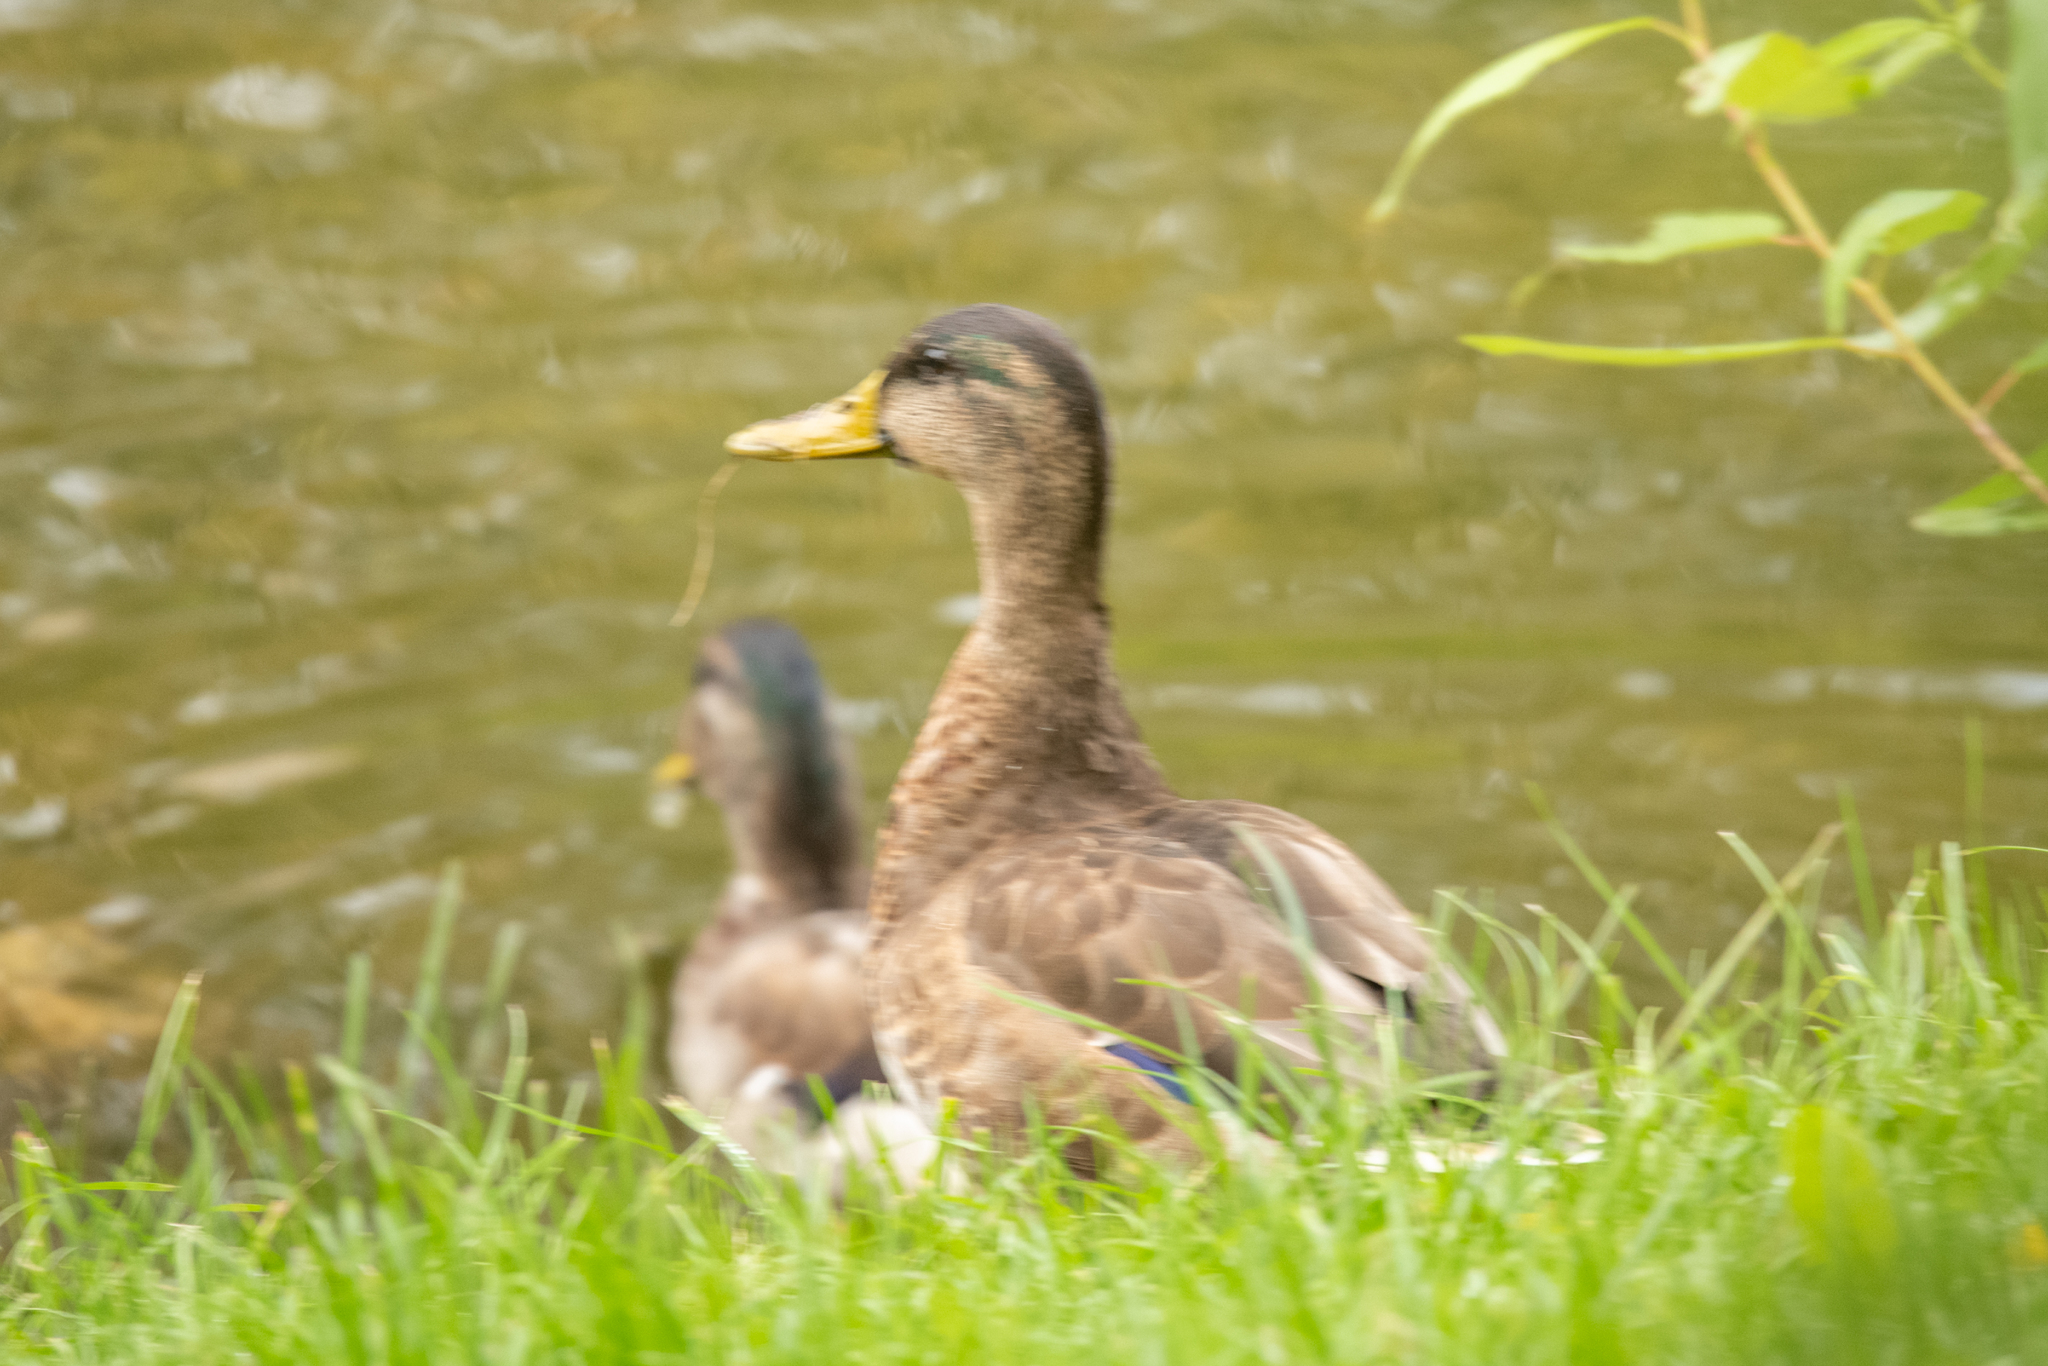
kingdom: Animalia
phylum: Chordata
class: Aves
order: Anseriformes
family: Anatidae
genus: Anas
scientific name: Anas platyrhynchos
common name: Mallard
